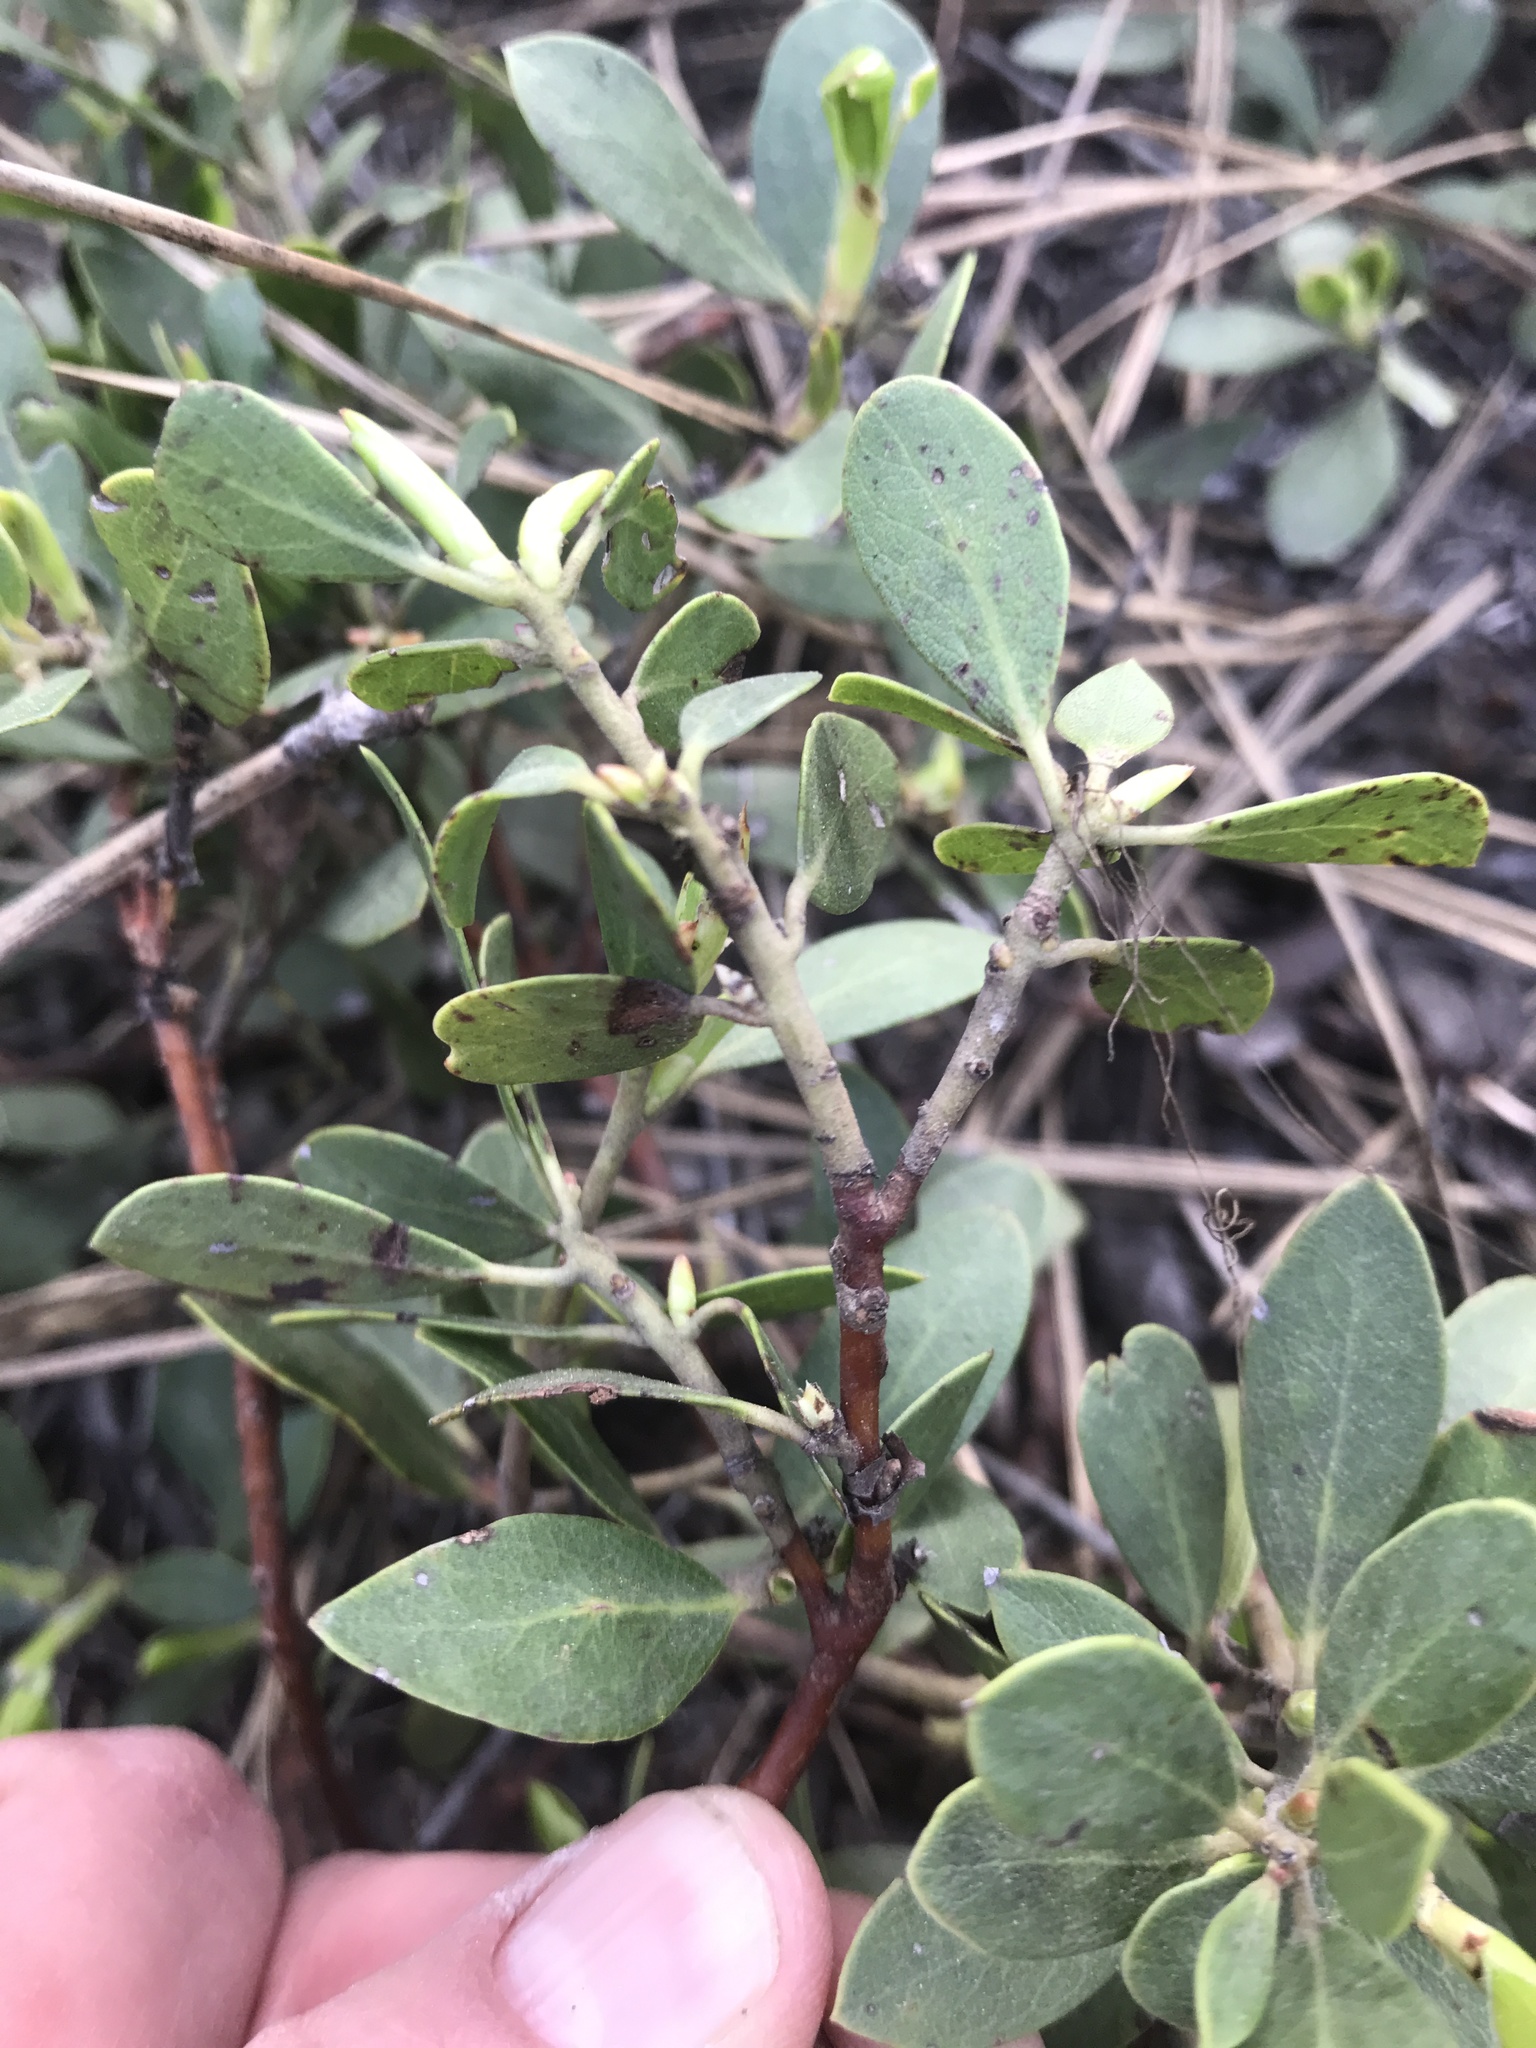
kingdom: Plantae
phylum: Tracheophyta
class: Magnoliopsida
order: Ericales
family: Ericaceae
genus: Arctostaphylos
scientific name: Arctostaphylos nevadensis
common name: Pinemat manzanita
